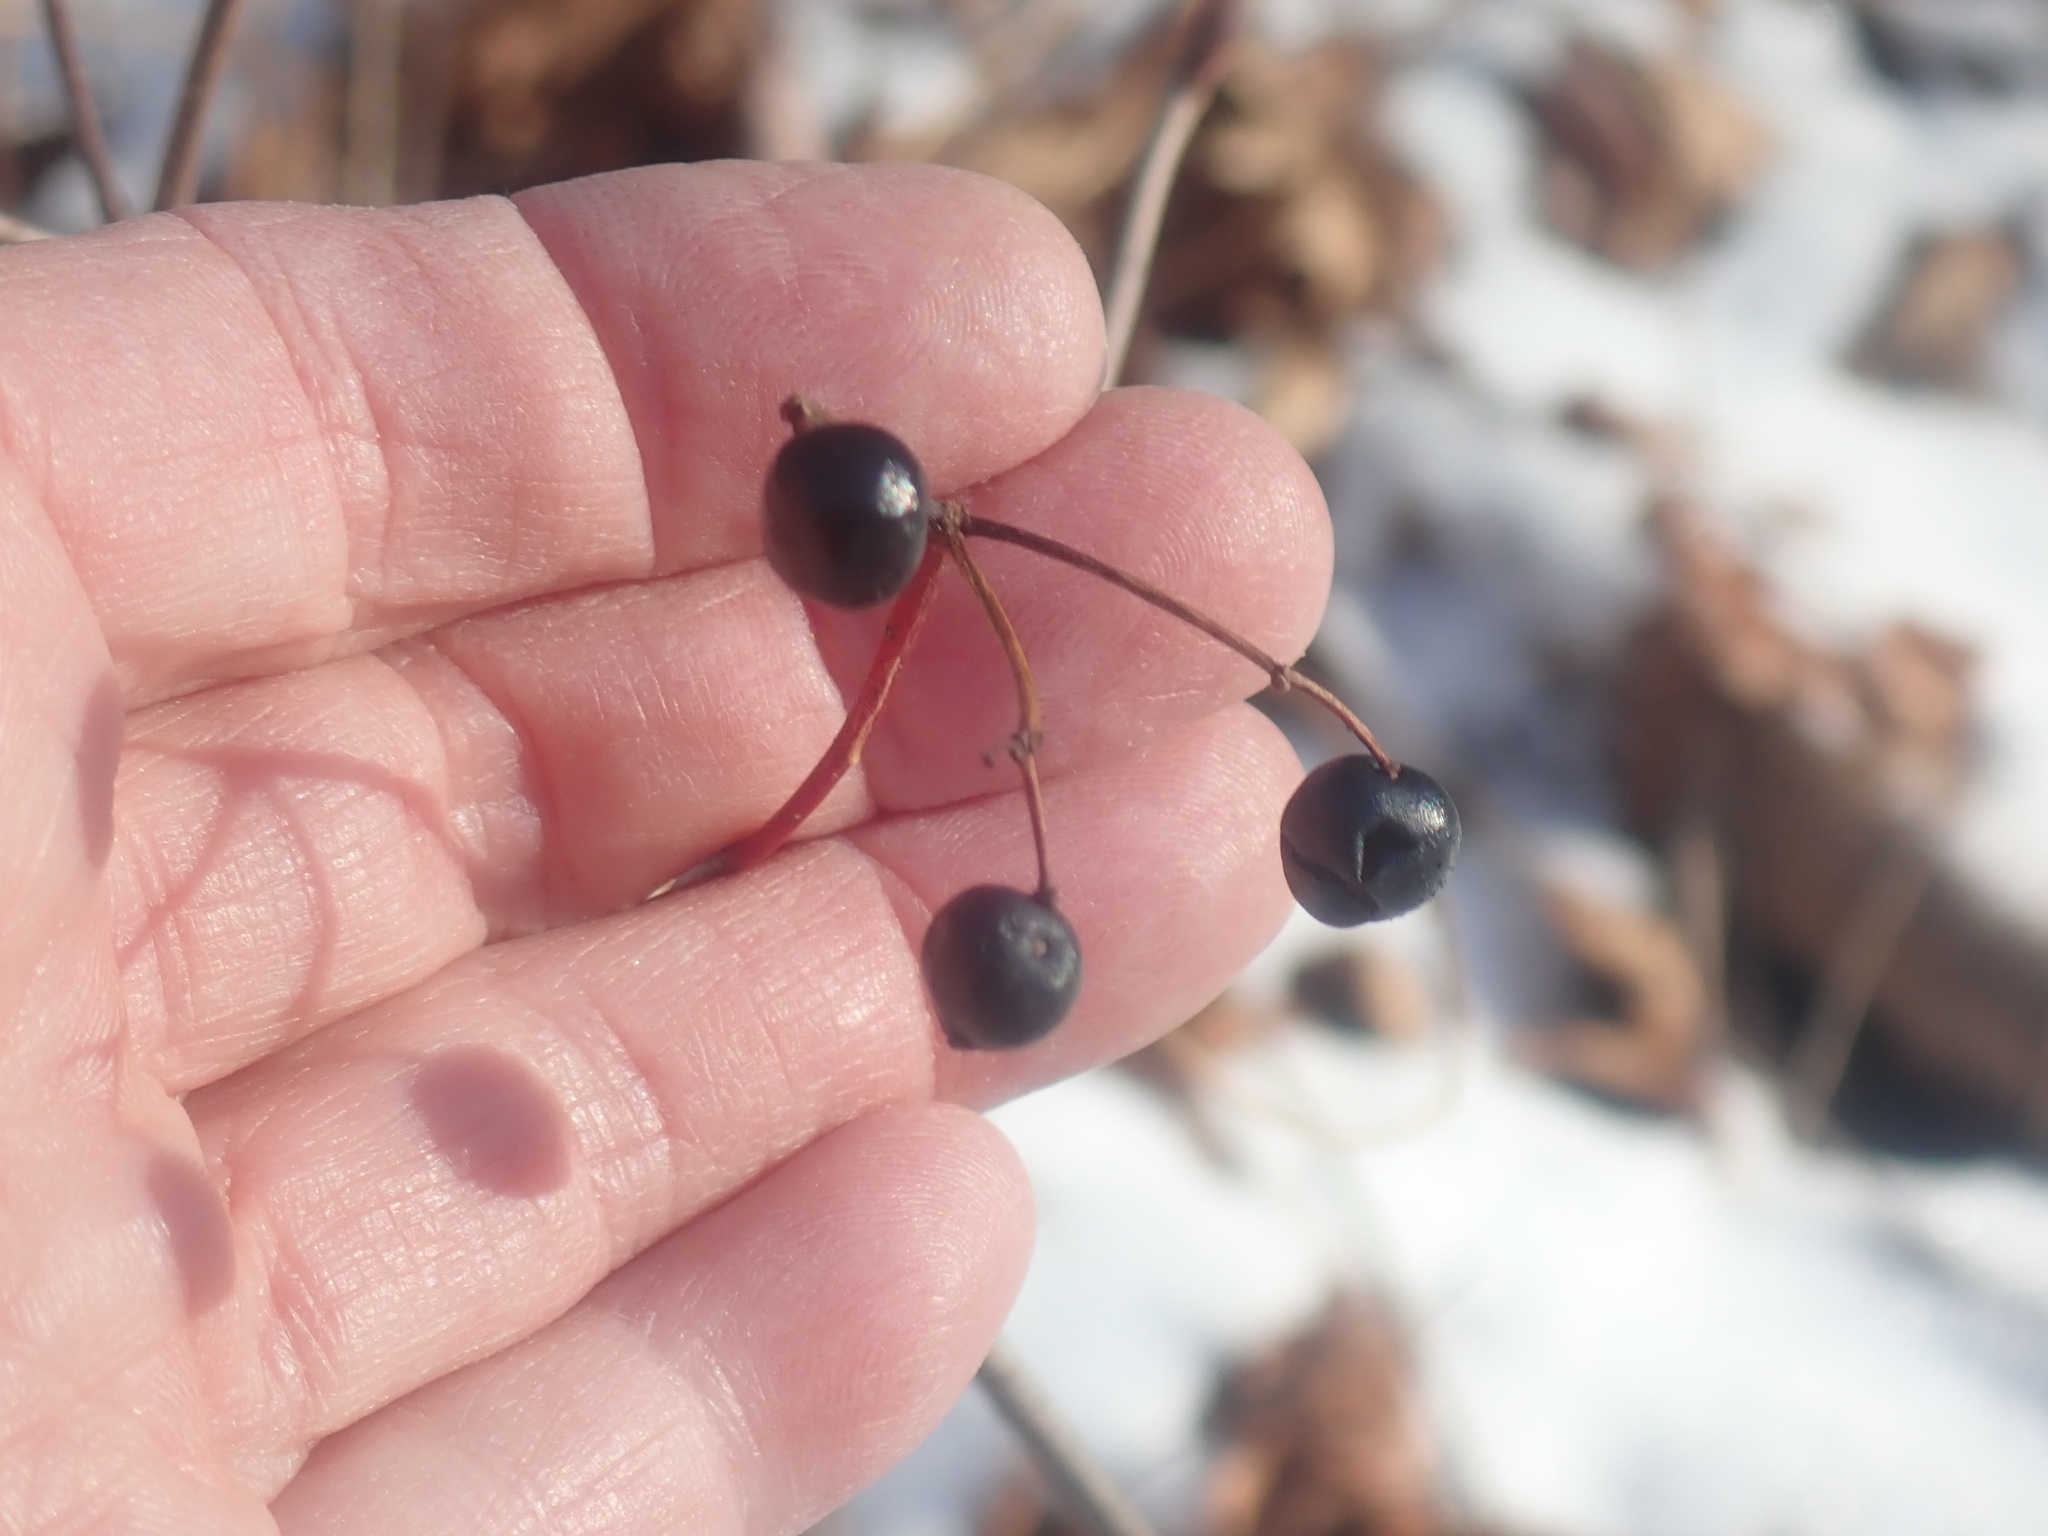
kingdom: Plantae
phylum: Tracheophyta
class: Magnoliopsida
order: Dipsacales
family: Viburnaceae
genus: Viburnum
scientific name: Viburnum acerifolium
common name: Dockmackie
